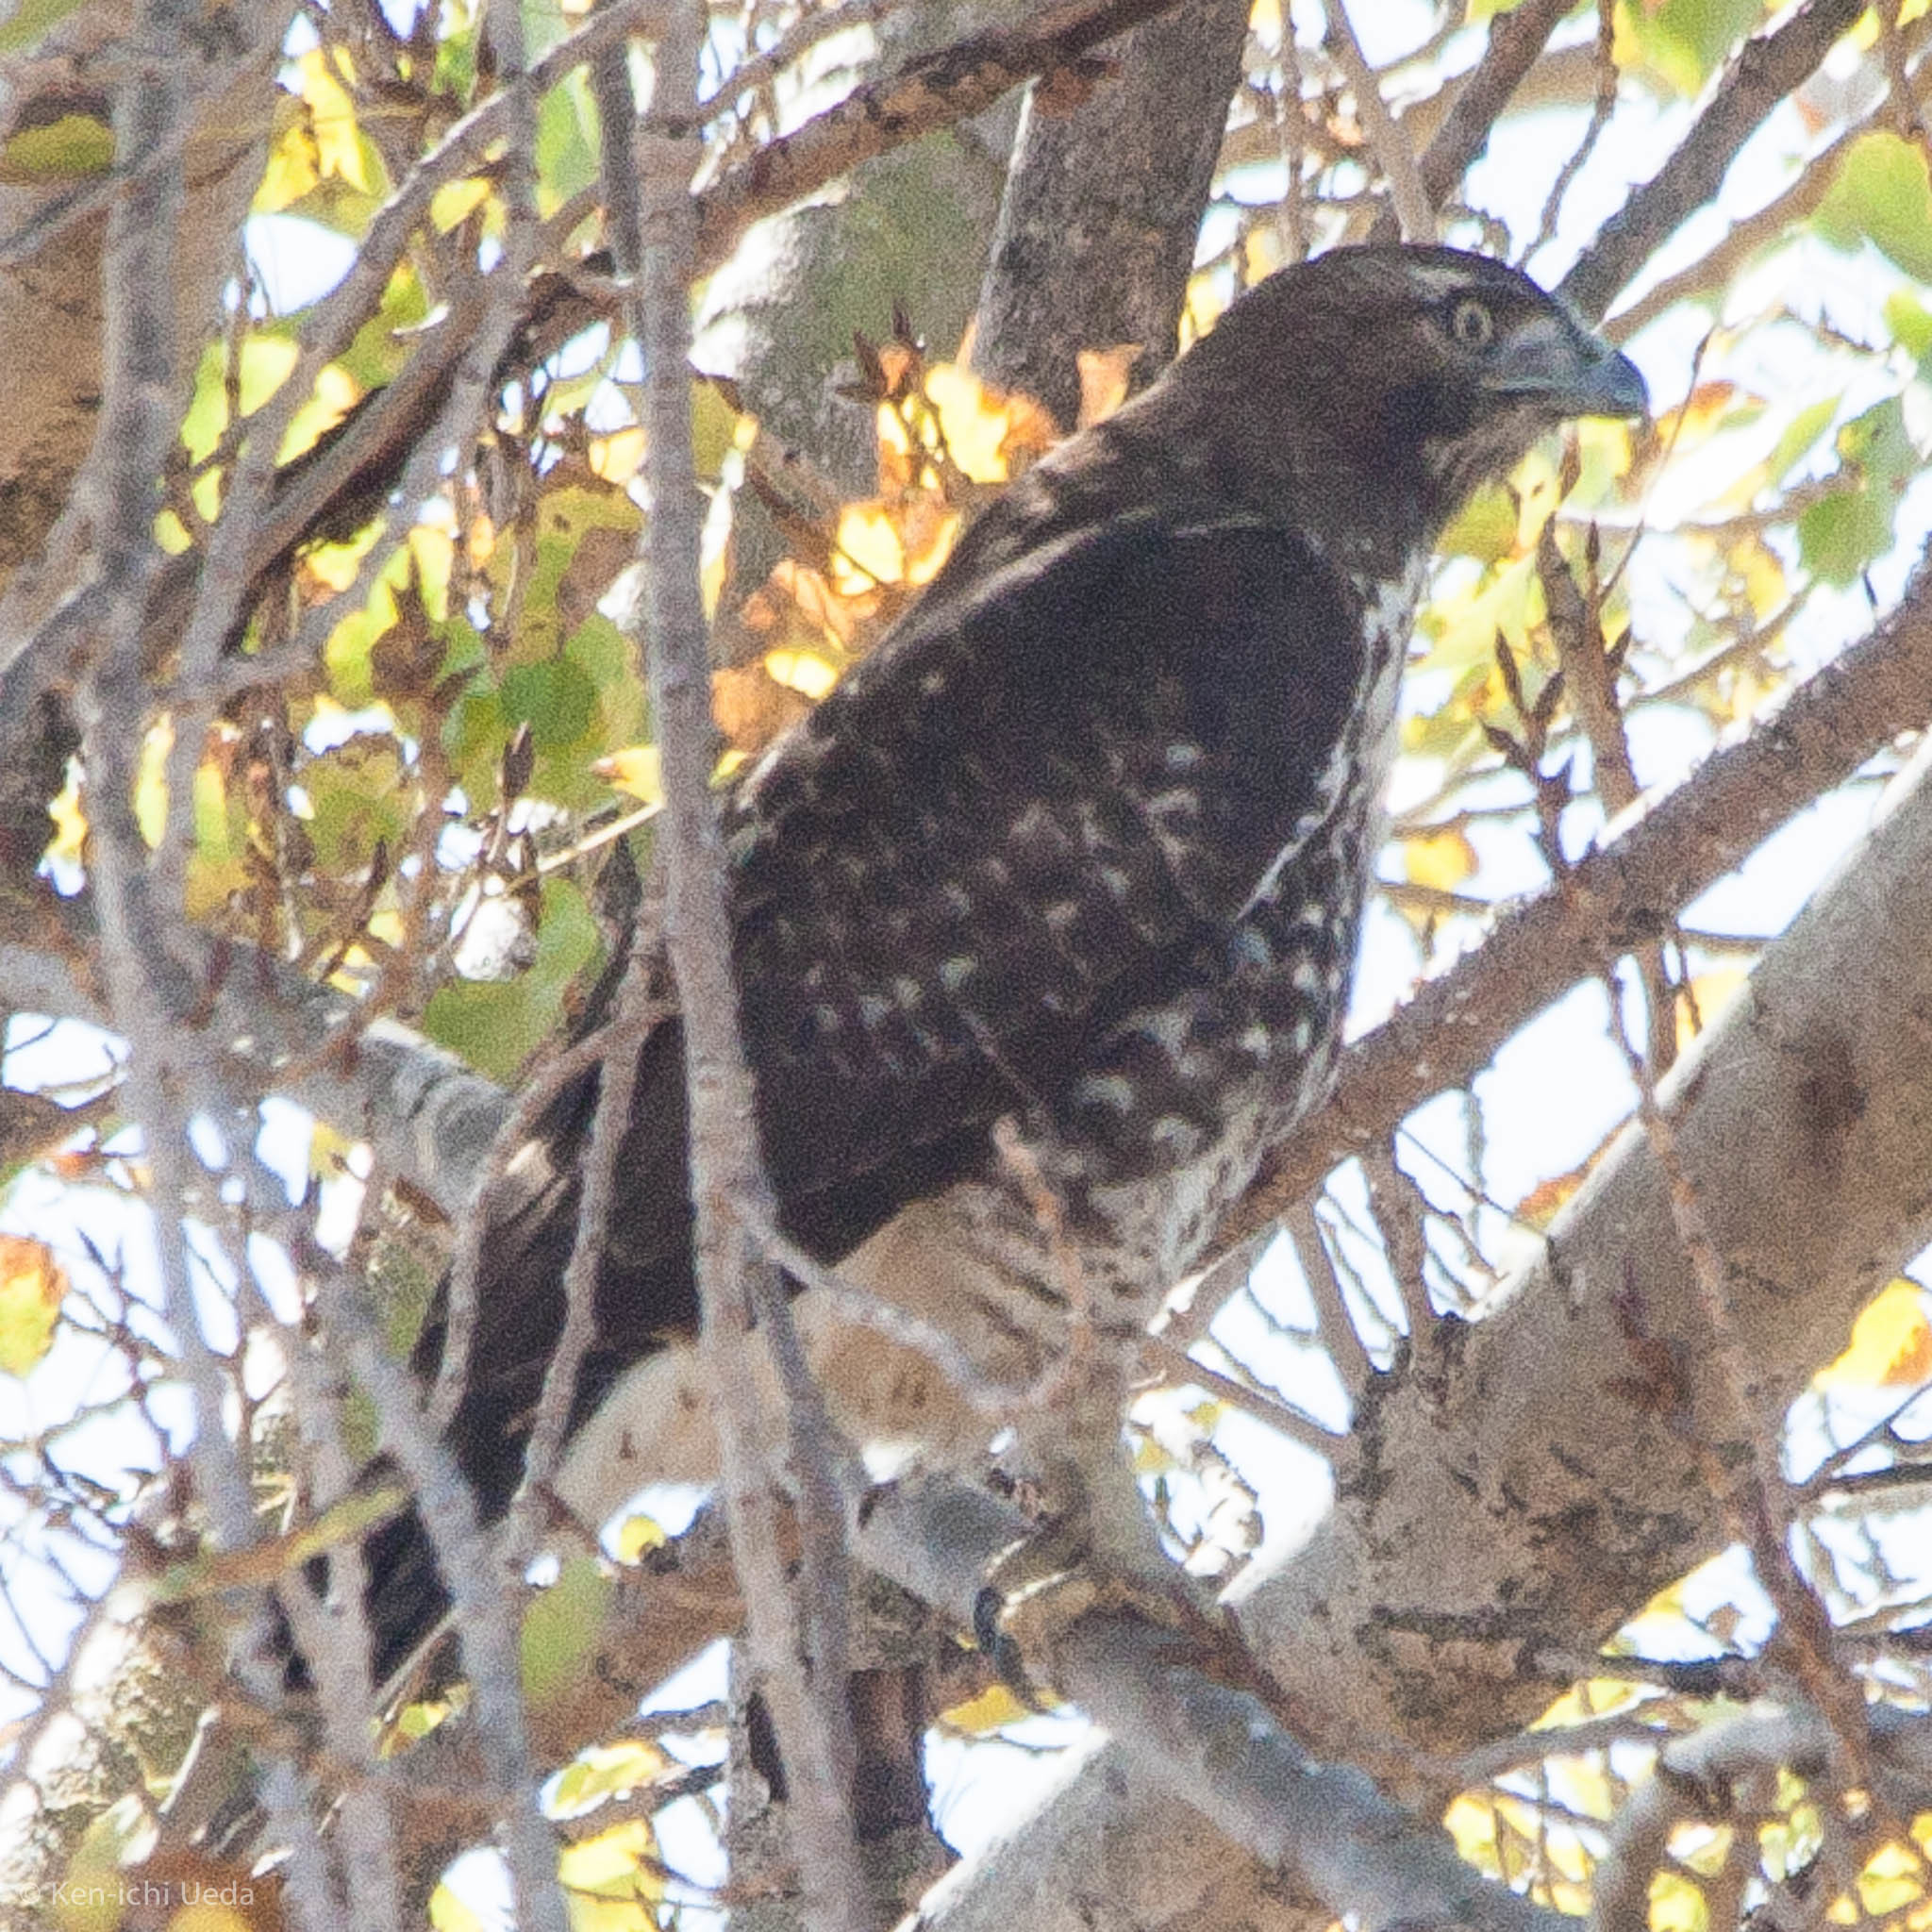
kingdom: Animalia
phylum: Chordata
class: Aves
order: Accipitriformes
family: Accipitridae
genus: Buteo
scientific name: Buteo jamaicensis
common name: Red-tailed hawk
